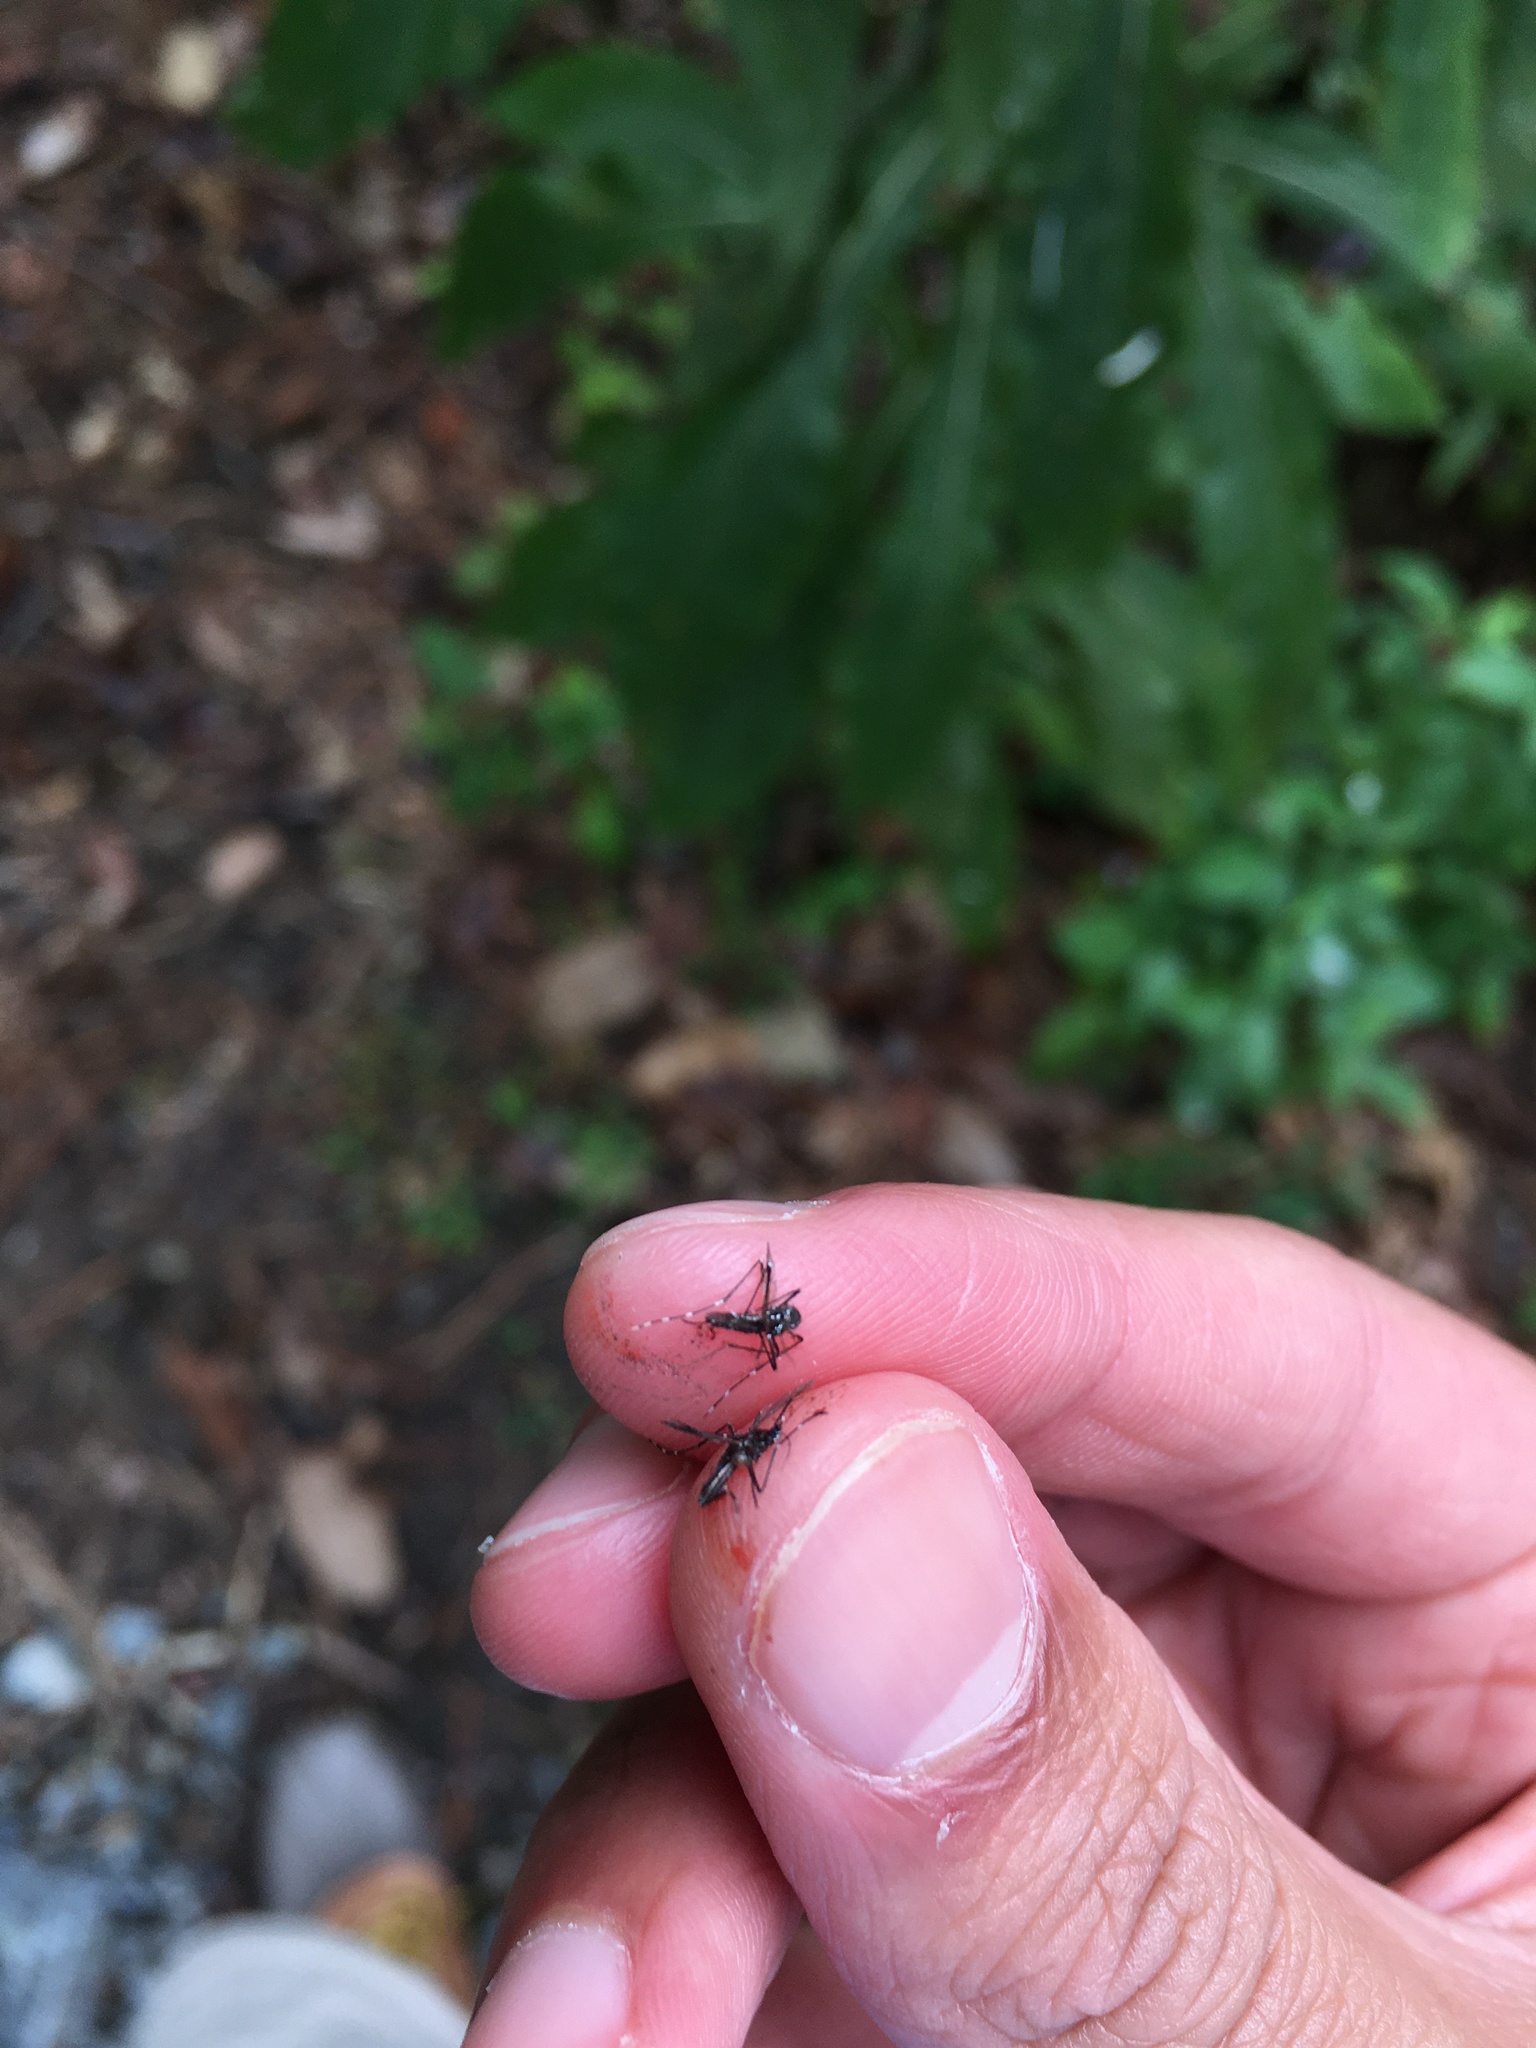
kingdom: Animalia
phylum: Arthropoda
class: Insecta
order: Diptera
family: Culicidae
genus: Aedes
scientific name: Aedes albopictus
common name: Tiger mosquito
